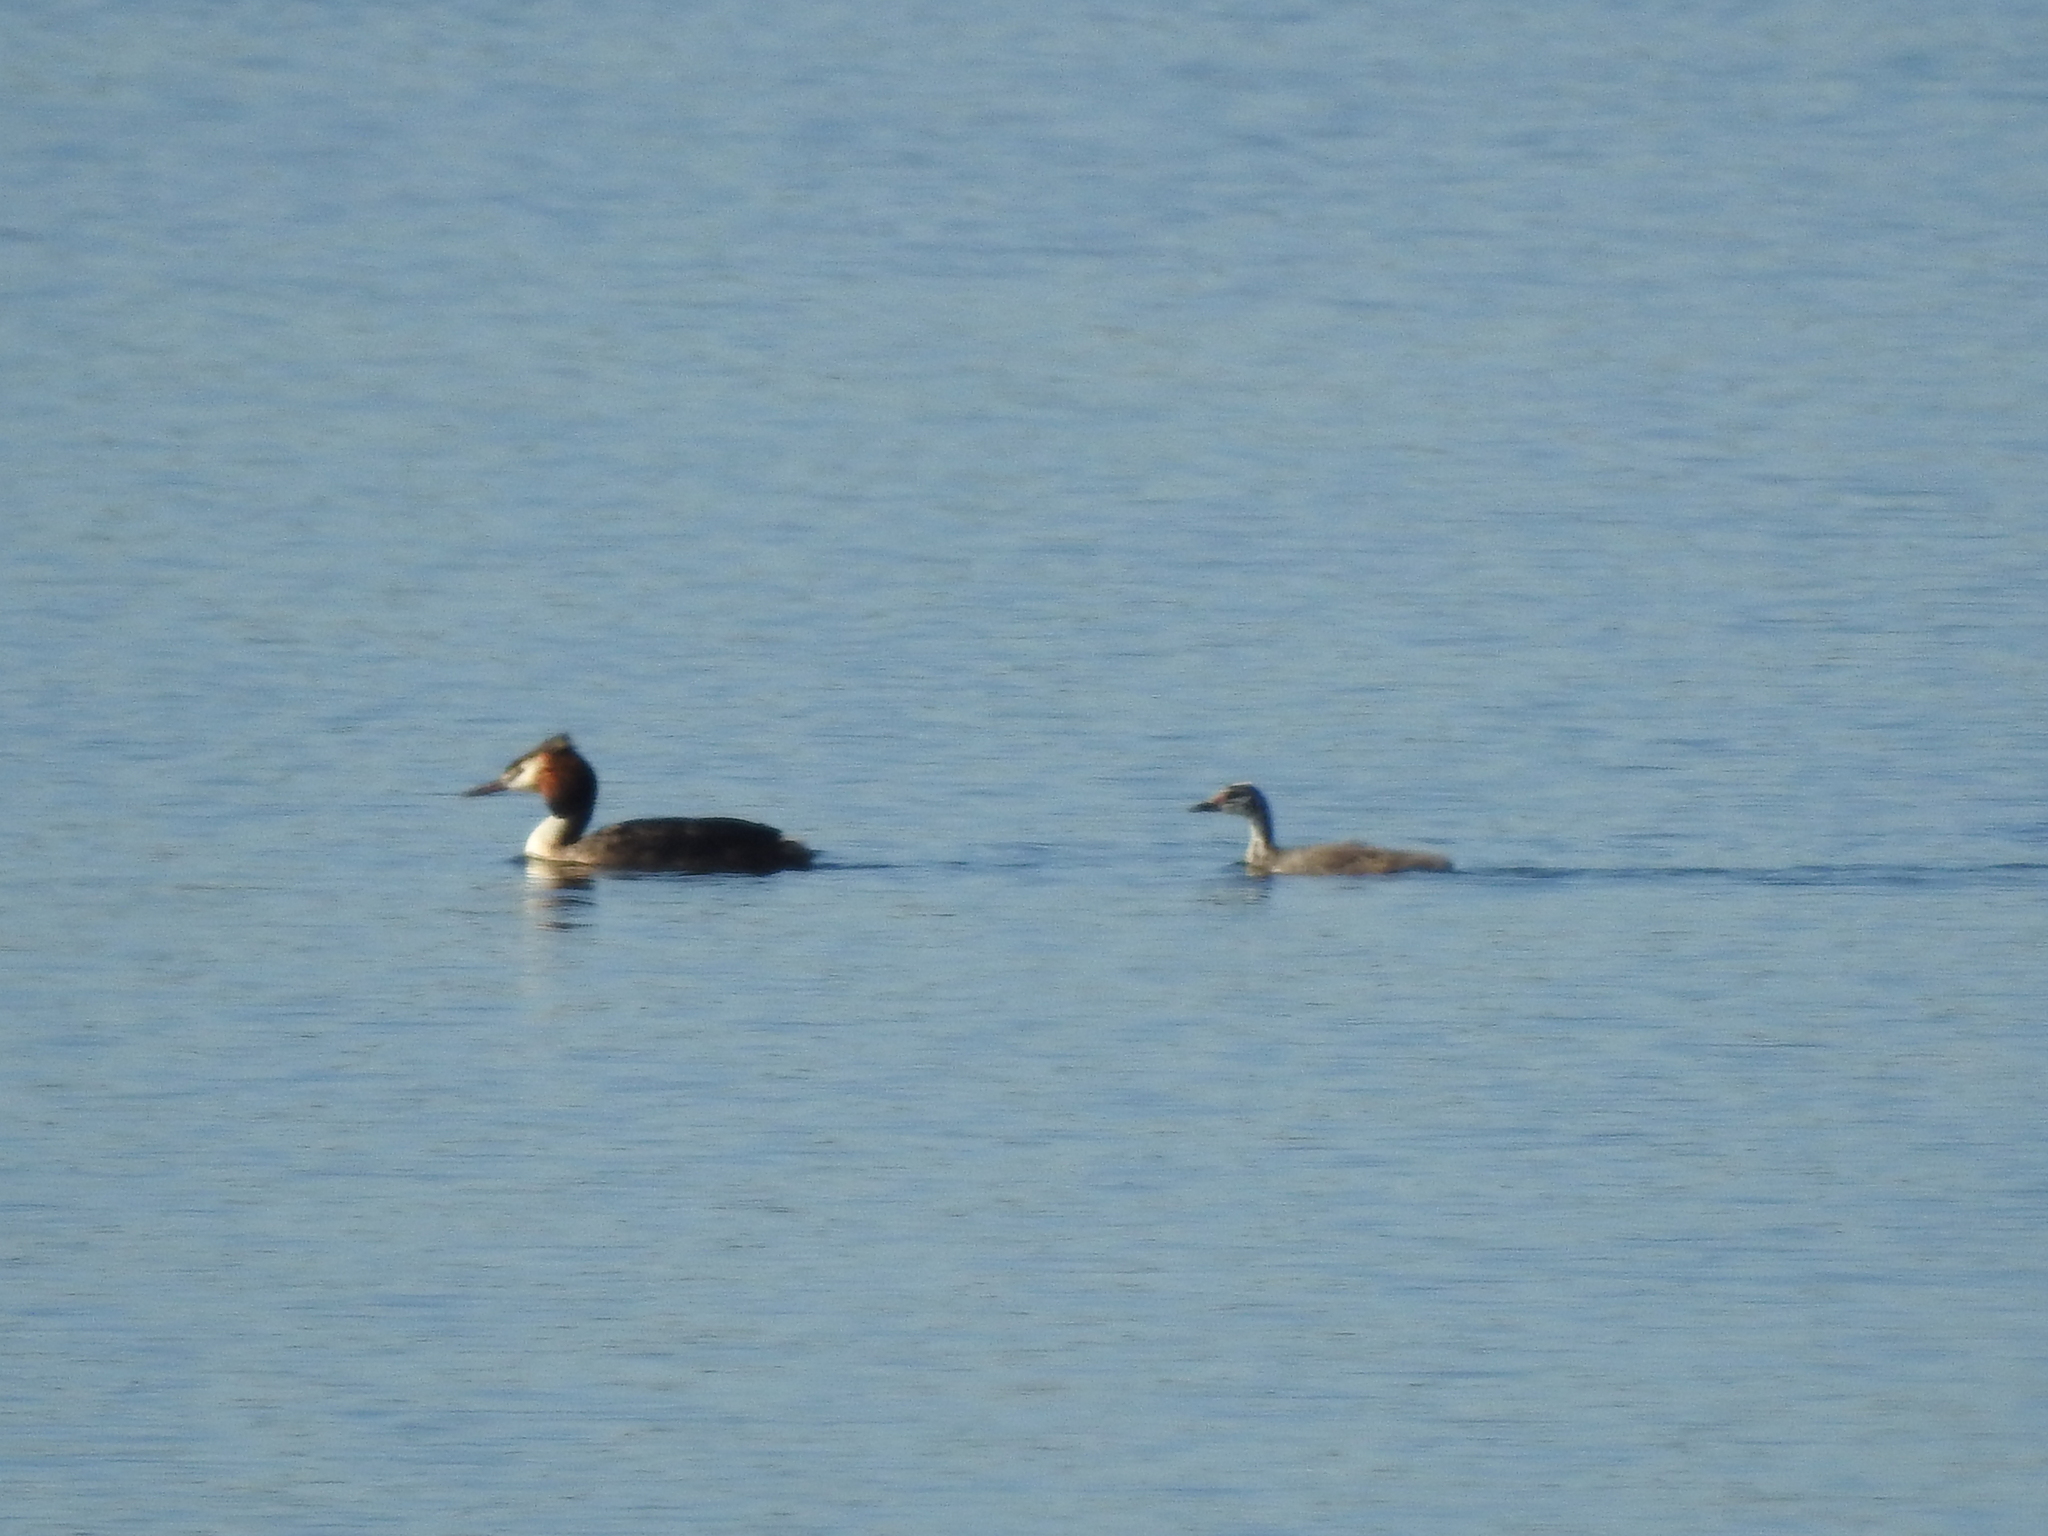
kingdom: Animalia
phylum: Chordata
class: Aves
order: Podicipediformes
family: Podicipedidae
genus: Podiceps
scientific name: Podiceps cristatus
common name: Great crested grebe
